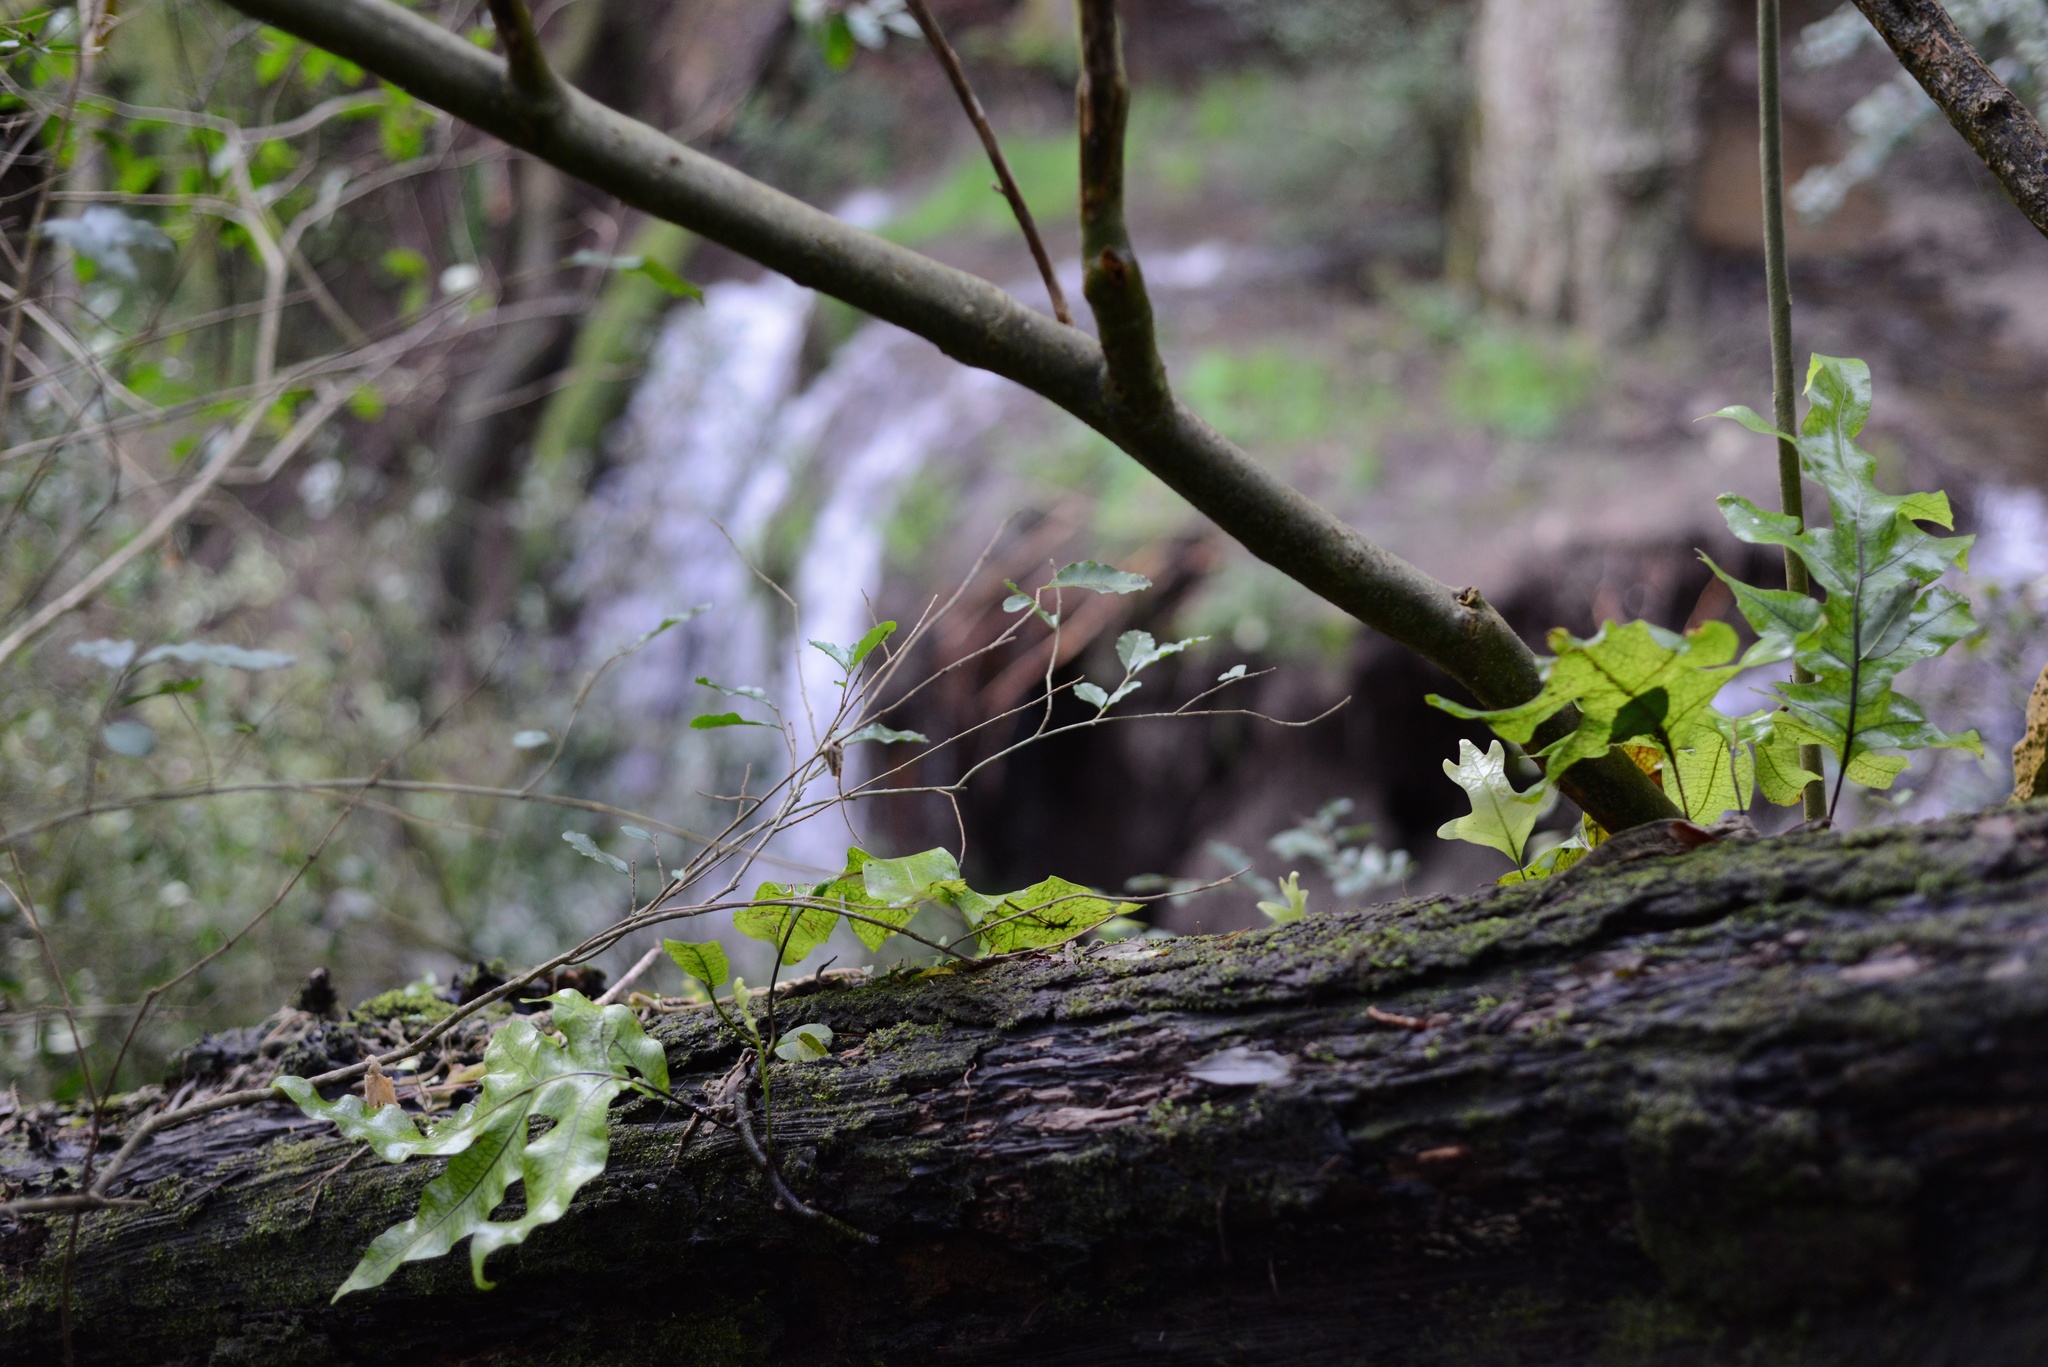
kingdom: Plantae
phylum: Tracheophyta
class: Polypodiopsida
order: Polypodiales
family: Polypodiaceae
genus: Lecanopteris
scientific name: Lecanopteris pustulata
